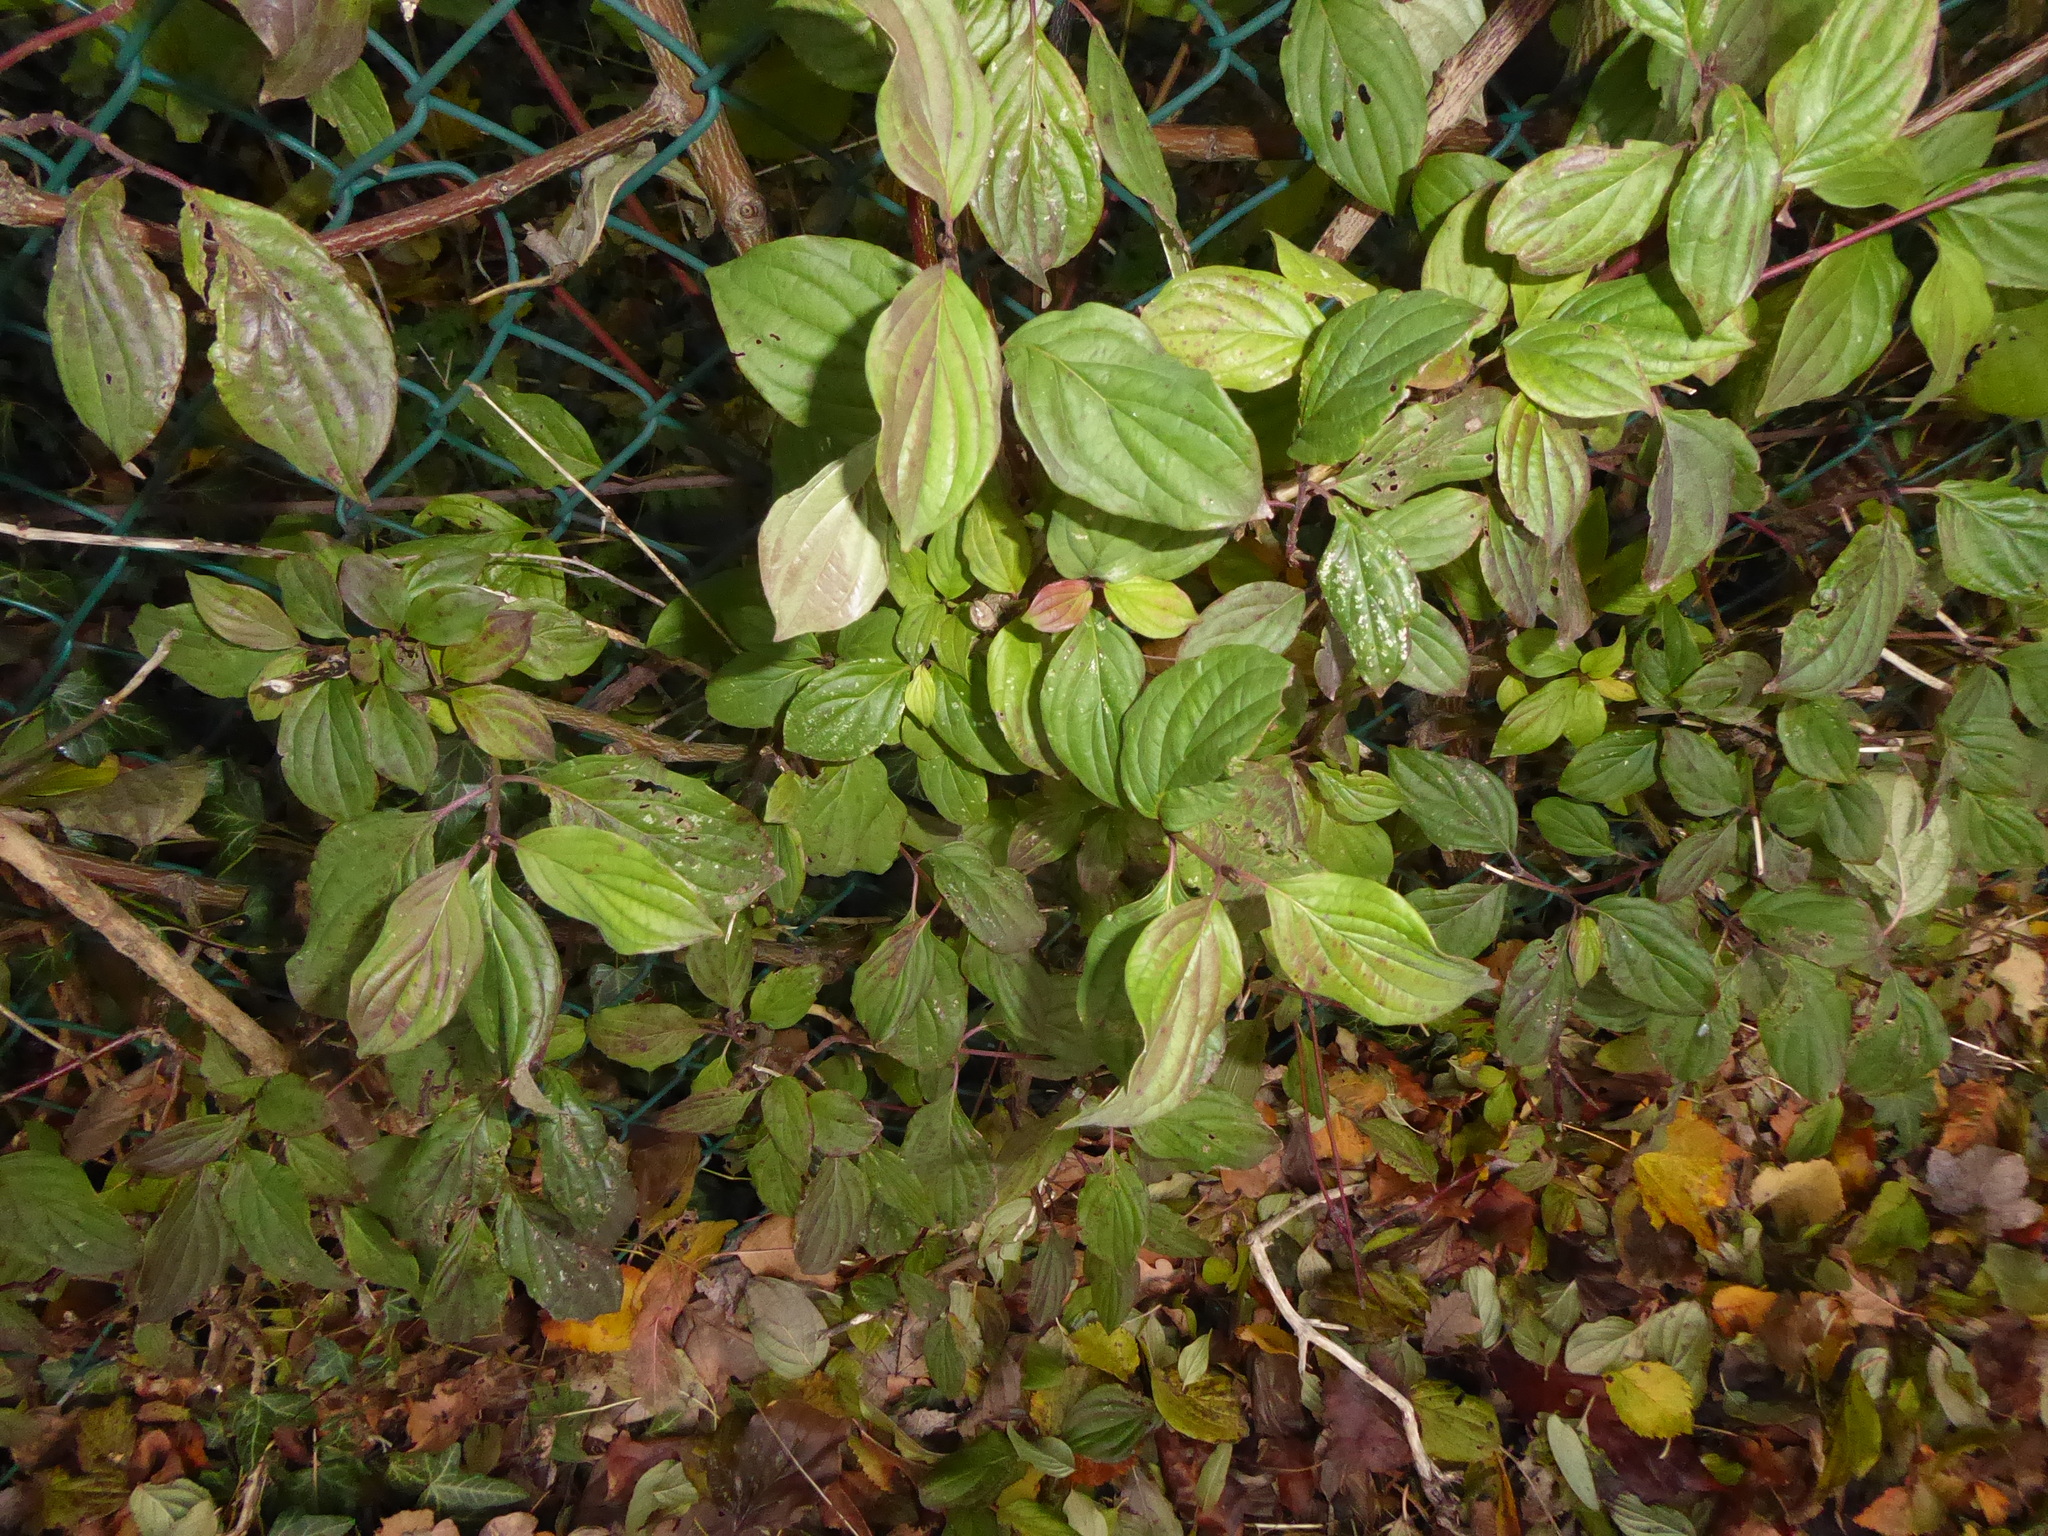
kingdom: Plantae
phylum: Tracheophyta
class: Magnoliopsida
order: Cornales
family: Cornaceae
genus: Cornus
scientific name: Cornus sanguinea
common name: Dogwood
